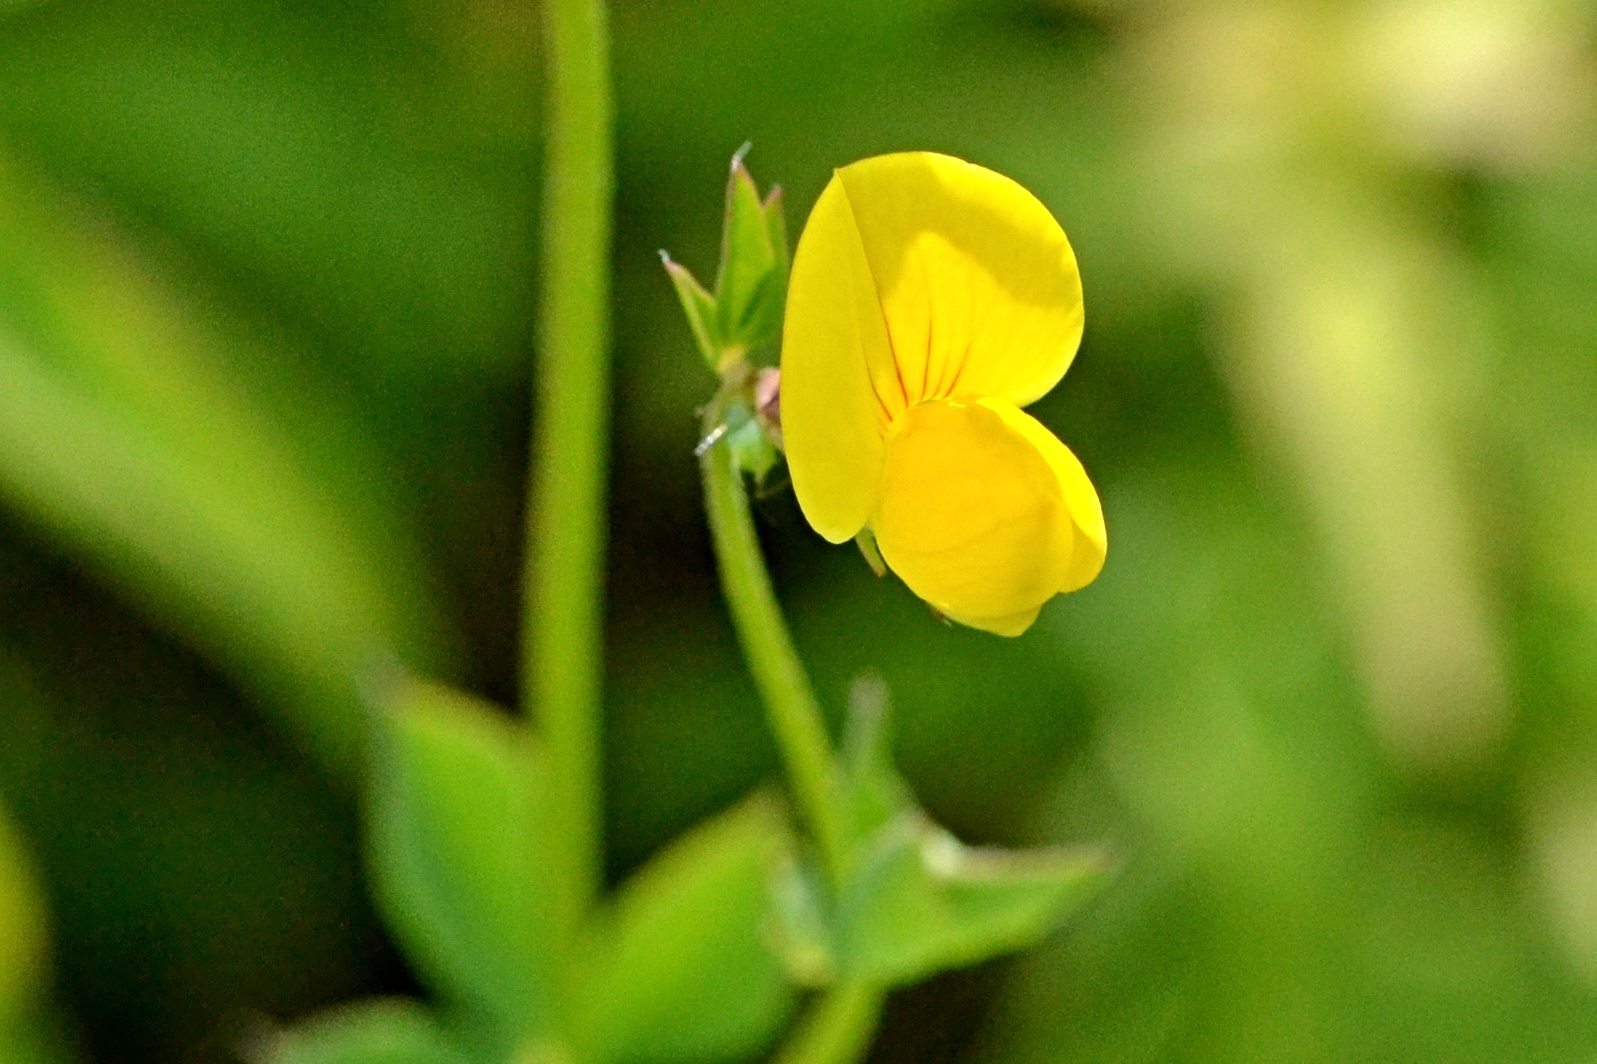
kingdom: Plantae
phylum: Tracheophyta
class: Magnoliopsida
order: Fabales
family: Fabaceae
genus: Lotus
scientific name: Lotus corniculatus
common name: Common bird's-foot-trefoil
